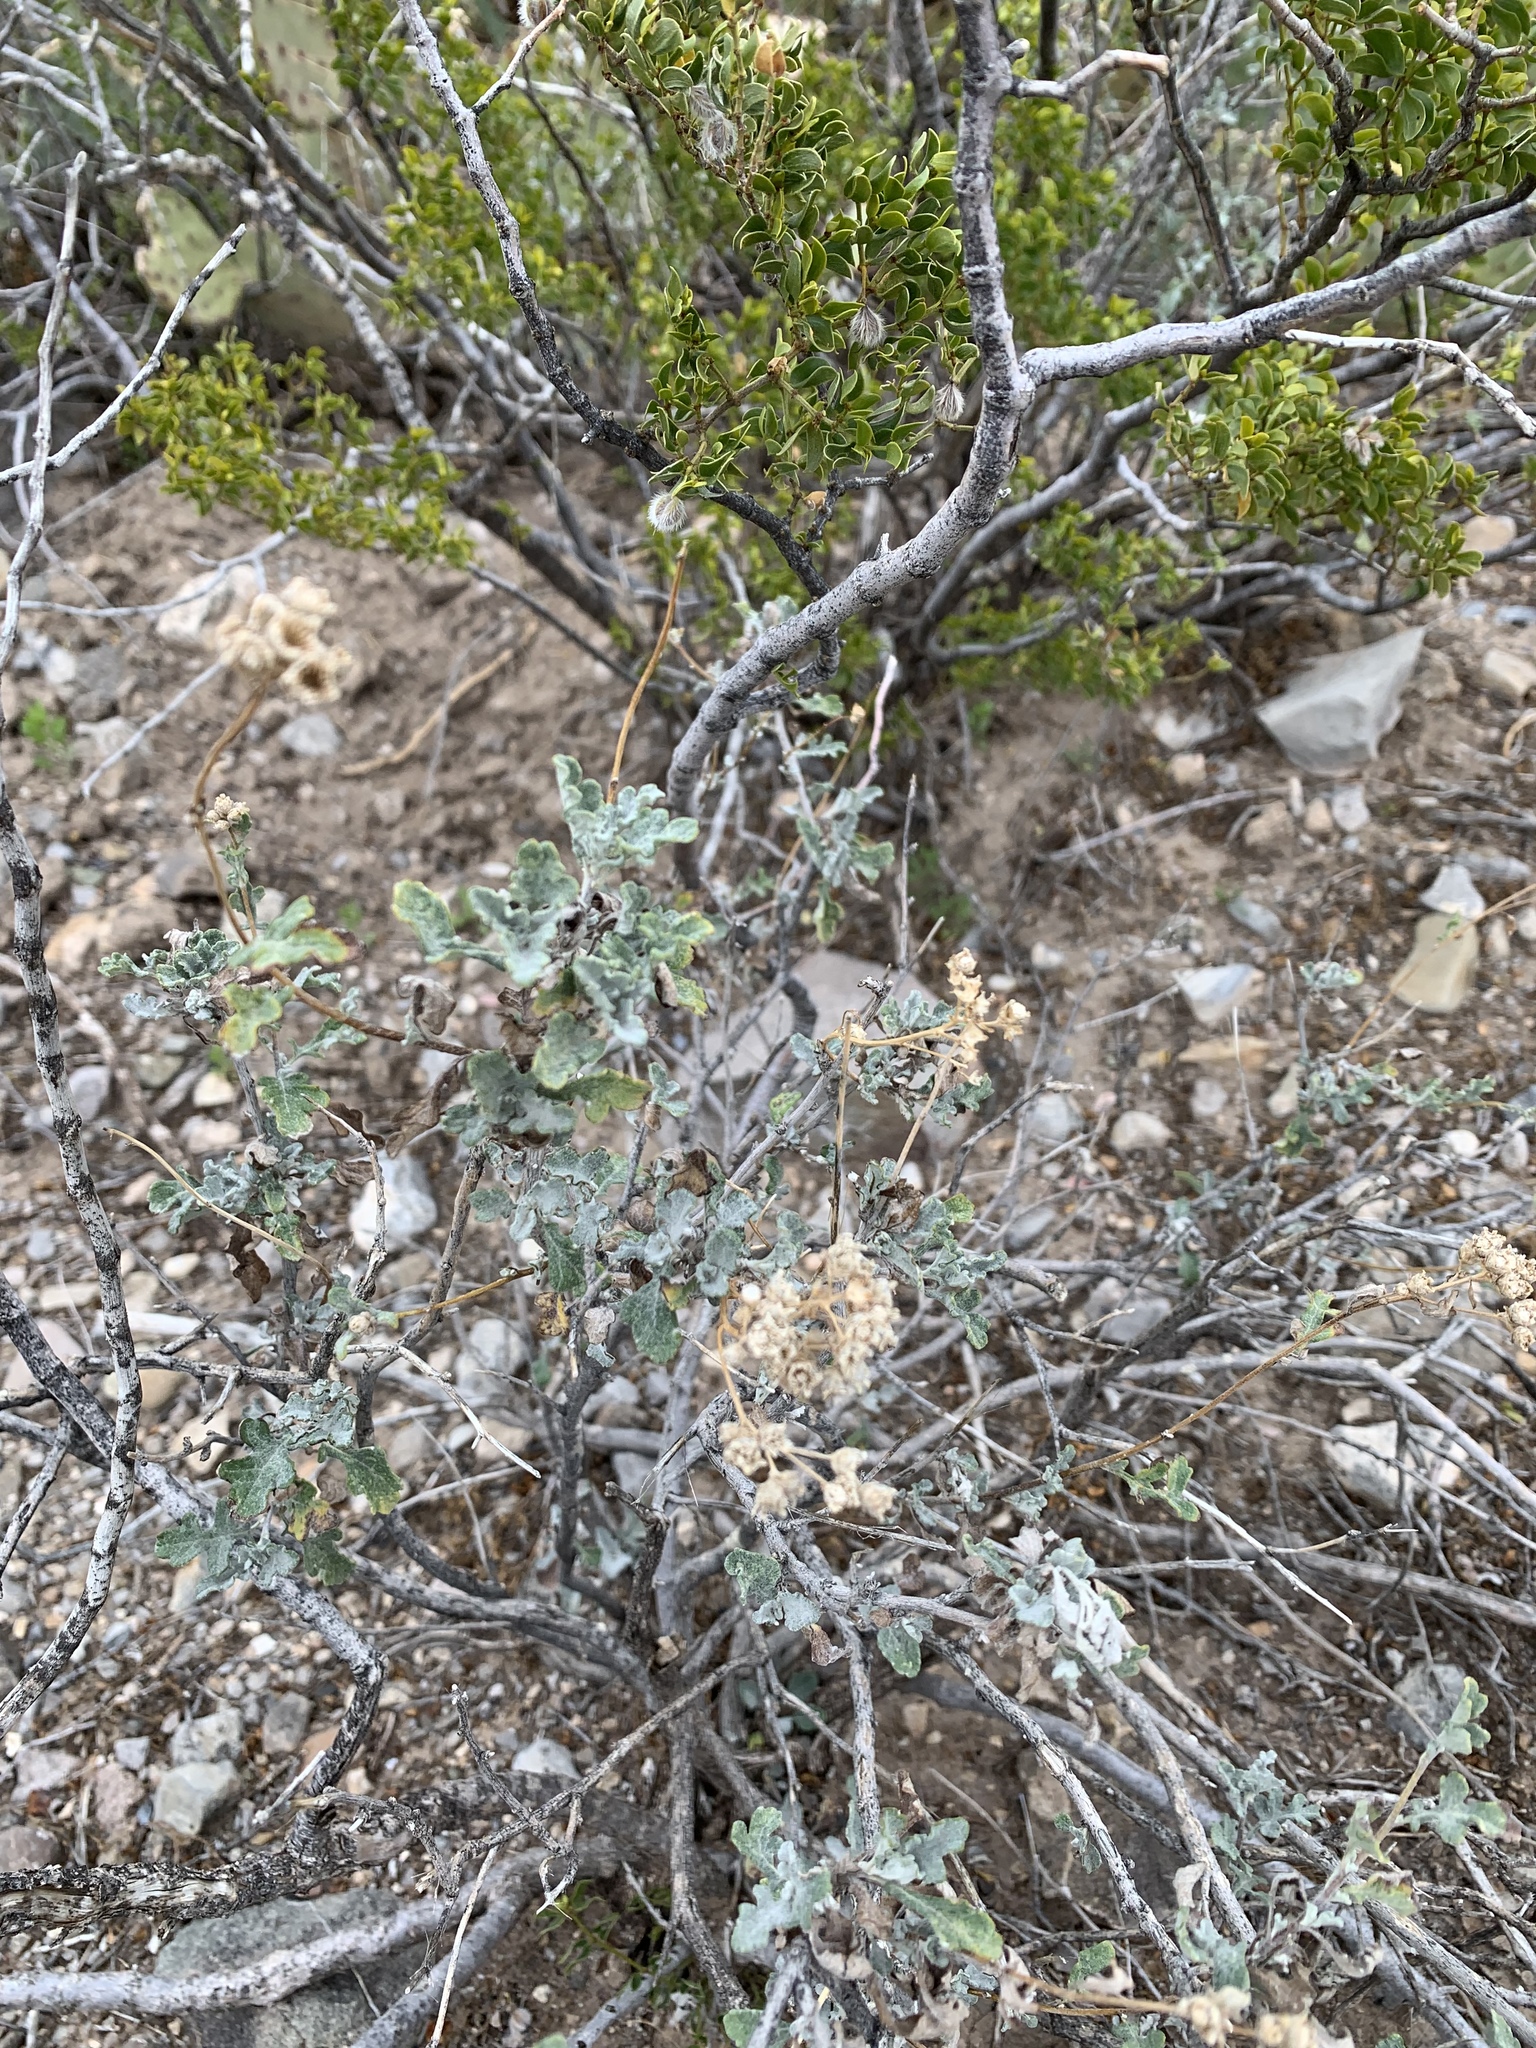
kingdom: Plantae
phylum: Tracheophyta
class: Magnoliopsida
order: Asterales
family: Asteraceae
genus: Parthenium
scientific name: Parthenium incanum
